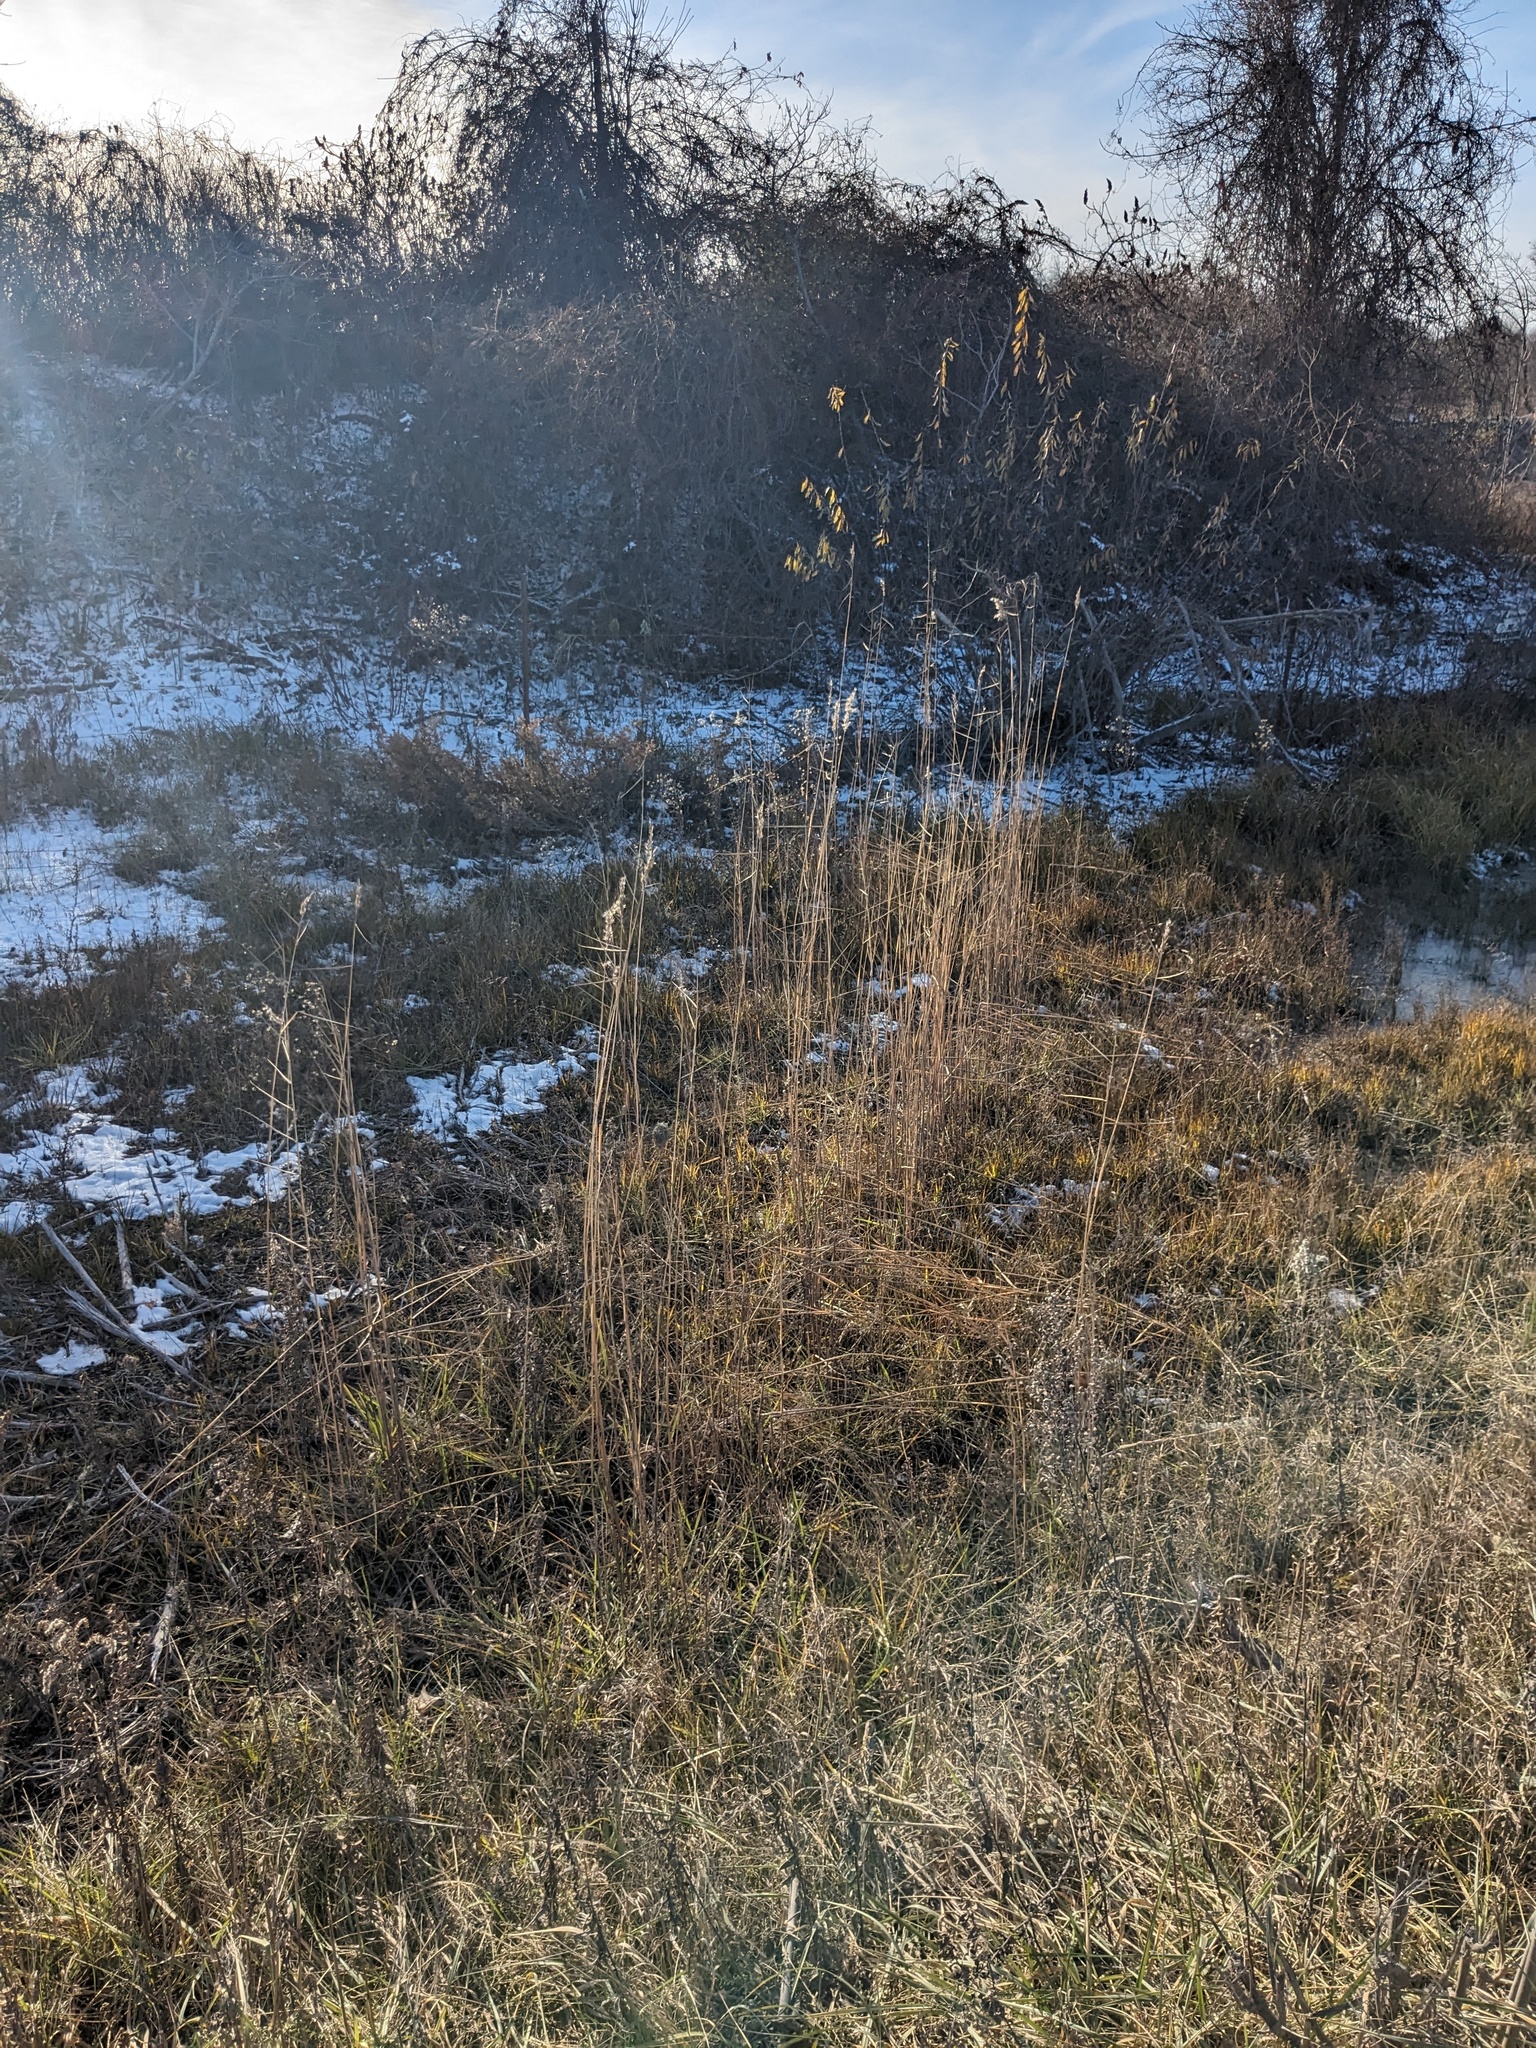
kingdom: Plantae
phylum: Tracheophyta
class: Liliopsida
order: Poales
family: Poaceae
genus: Phragmites
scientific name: Phragmites australis
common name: Common reed
